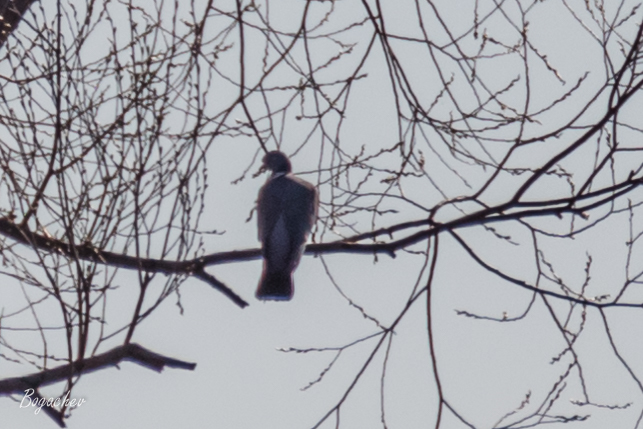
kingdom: Animalia
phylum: Chordata
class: Aves
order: Columbiformes
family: Columbidae
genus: Columba
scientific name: Columba palumbus
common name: Common wood pigeon
